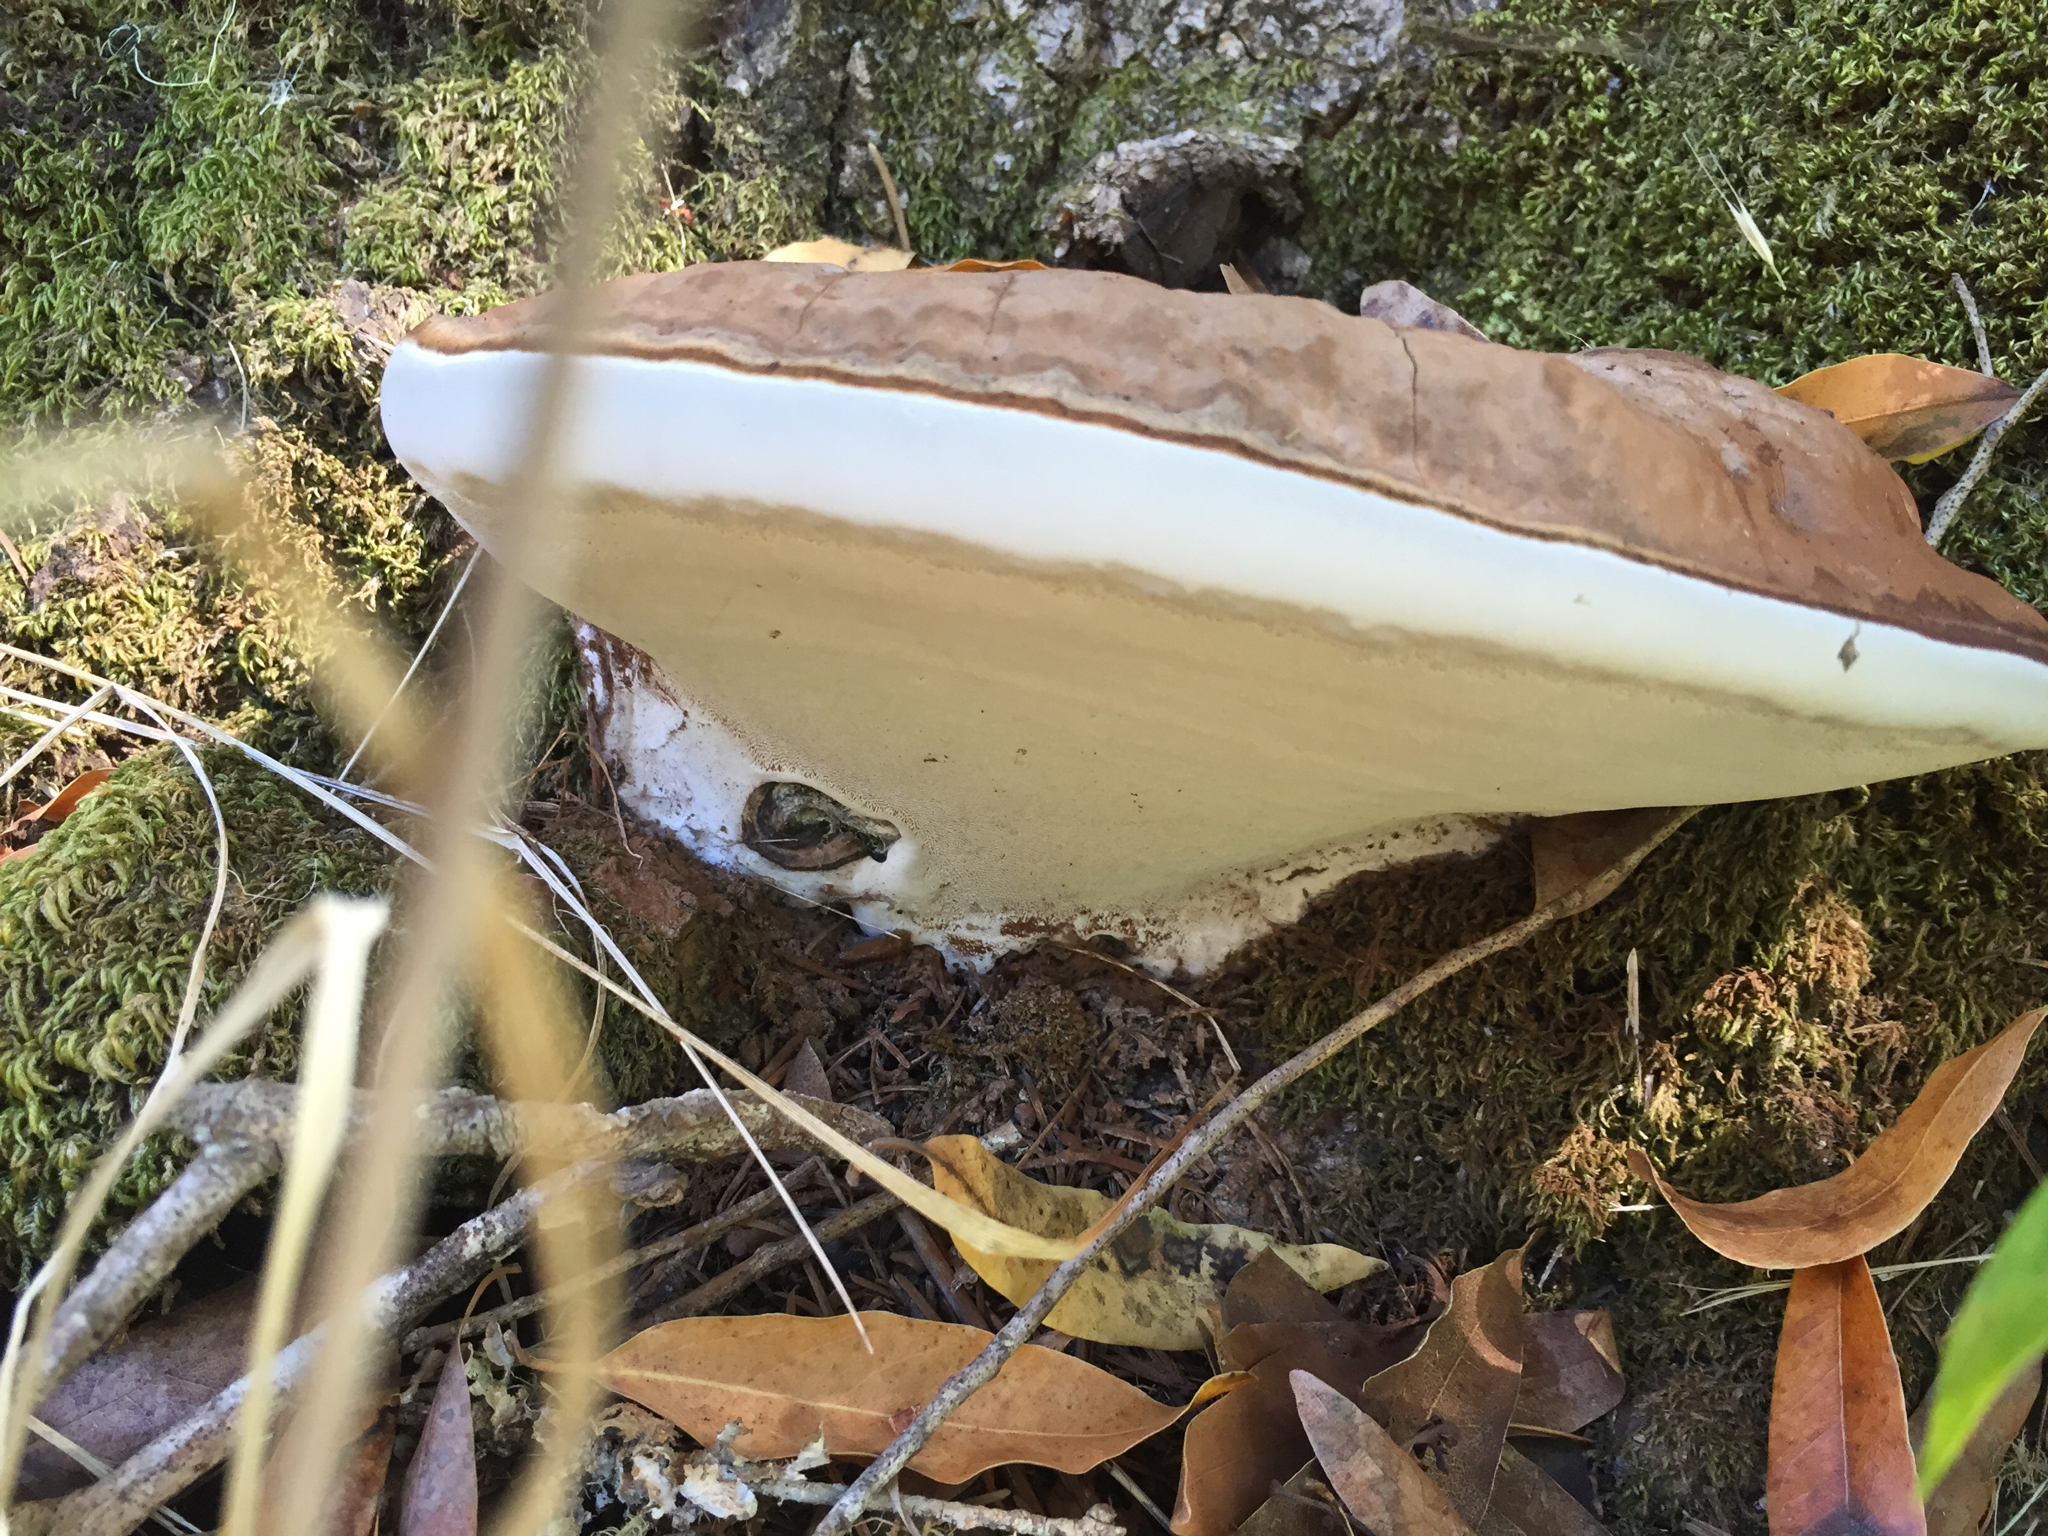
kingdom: Fungi
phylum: Basidiomycota
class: Agaricomycetes
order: Polyporales
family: Polyporaceae
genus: Ganoderma
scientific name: Ganoderma applanatum
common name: Artist's bracket
